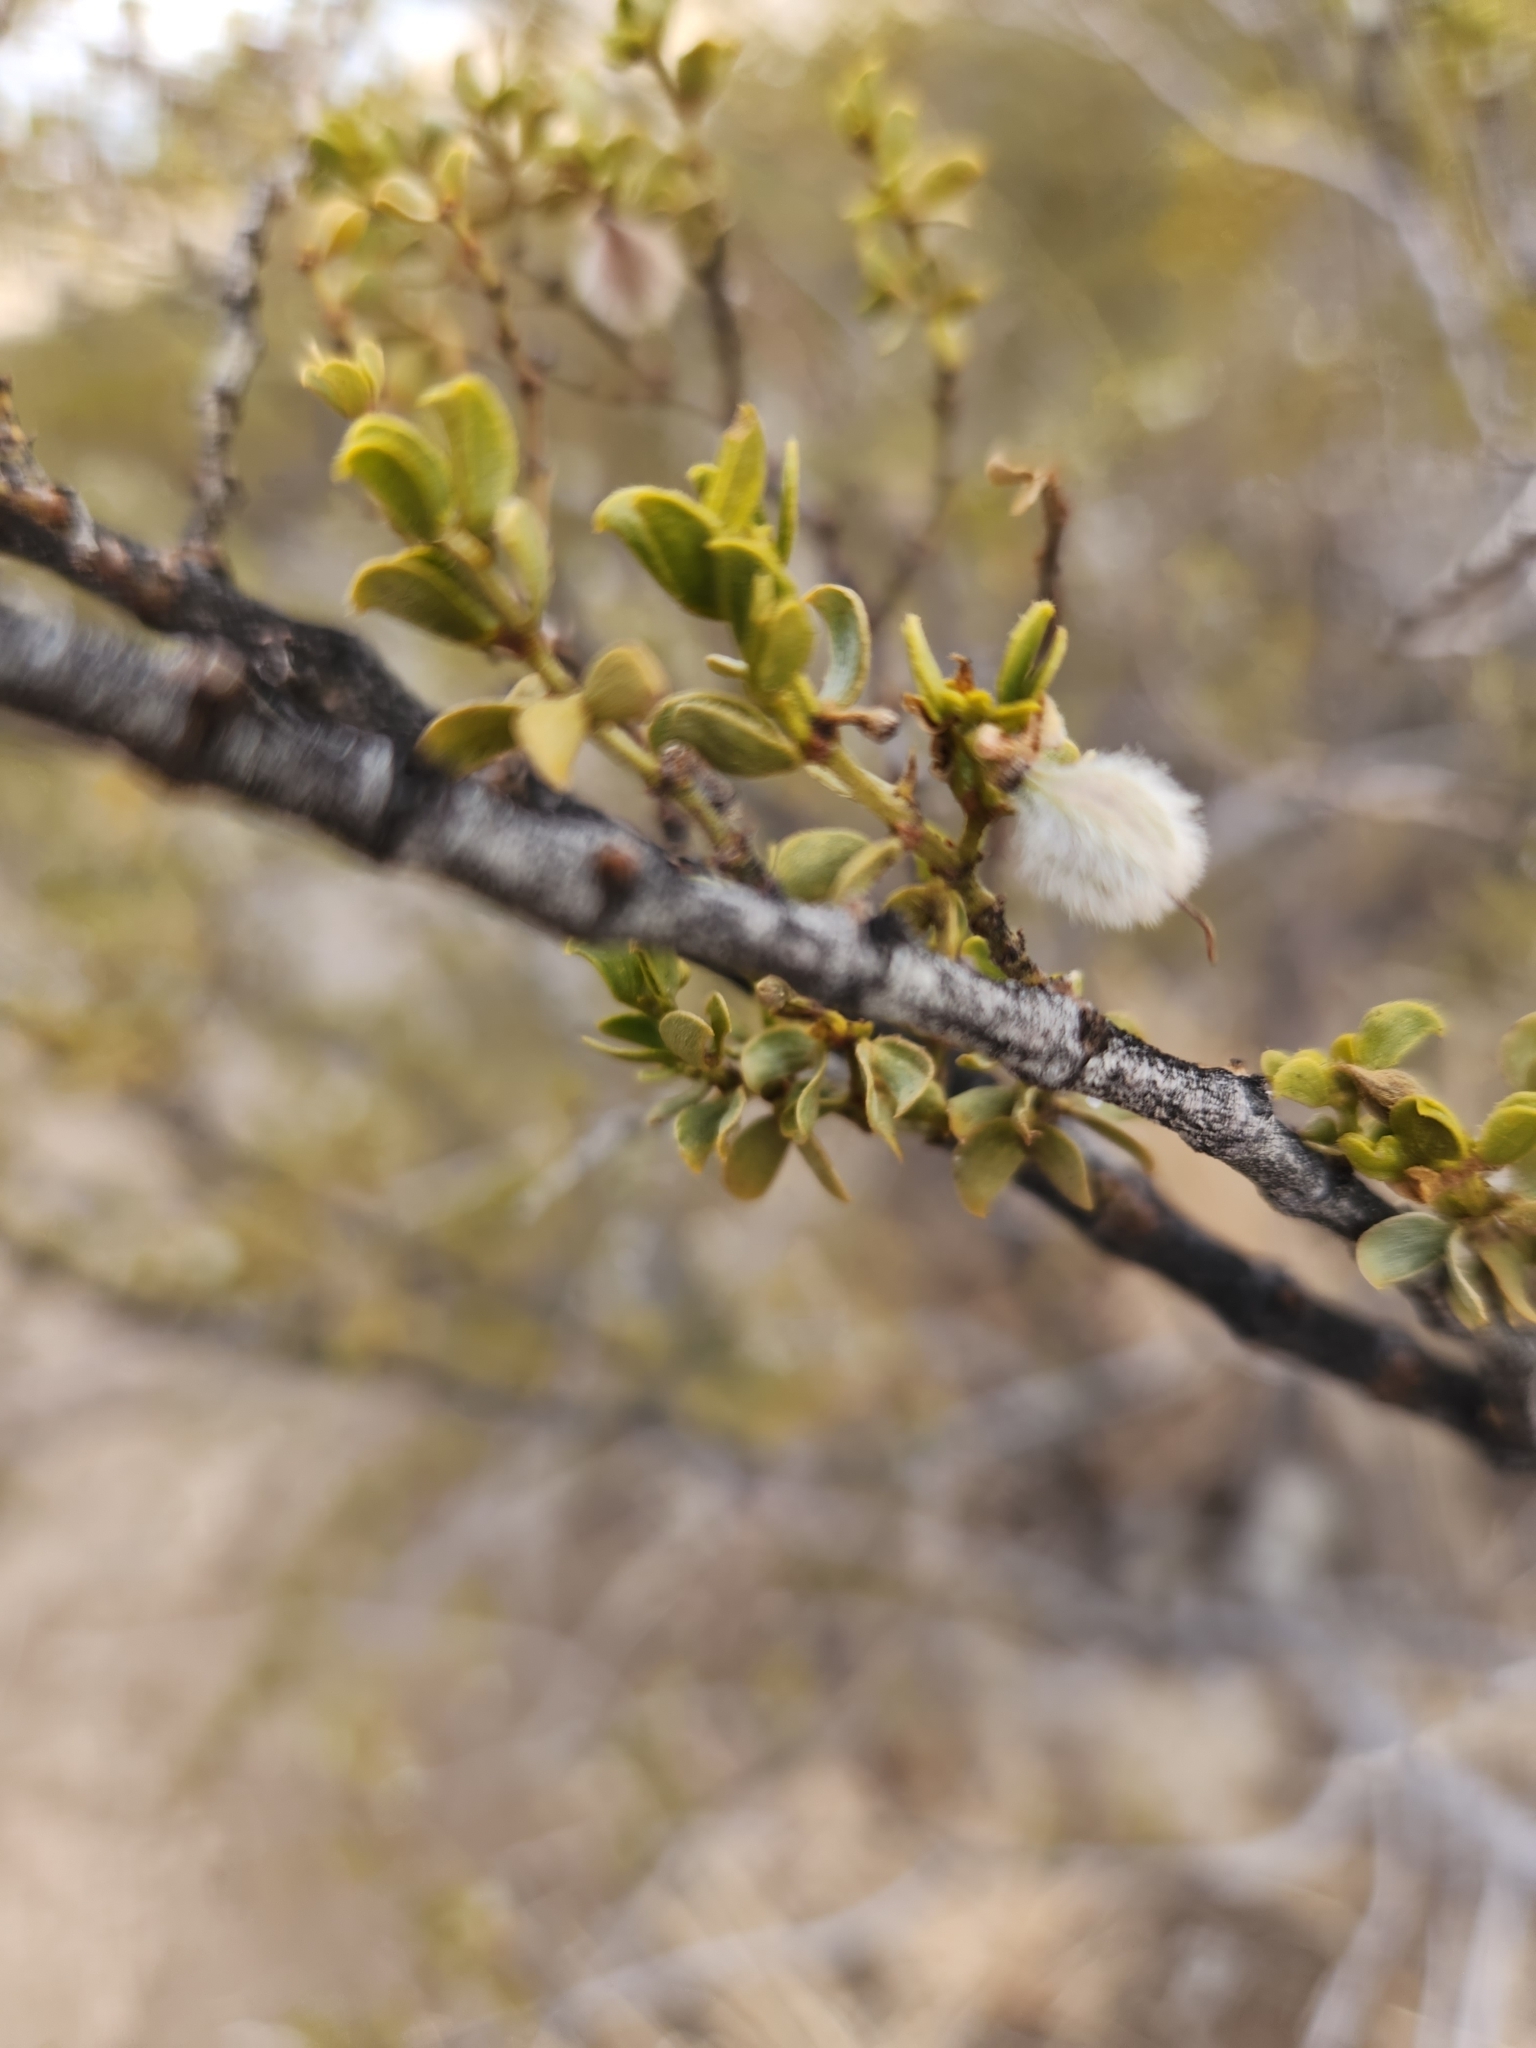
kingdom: Animalia
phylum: Arthropoda
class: Insecta
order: Diptera
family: Cecidomyiidae
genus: Asphondylia
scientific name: Asphondylia auripila
